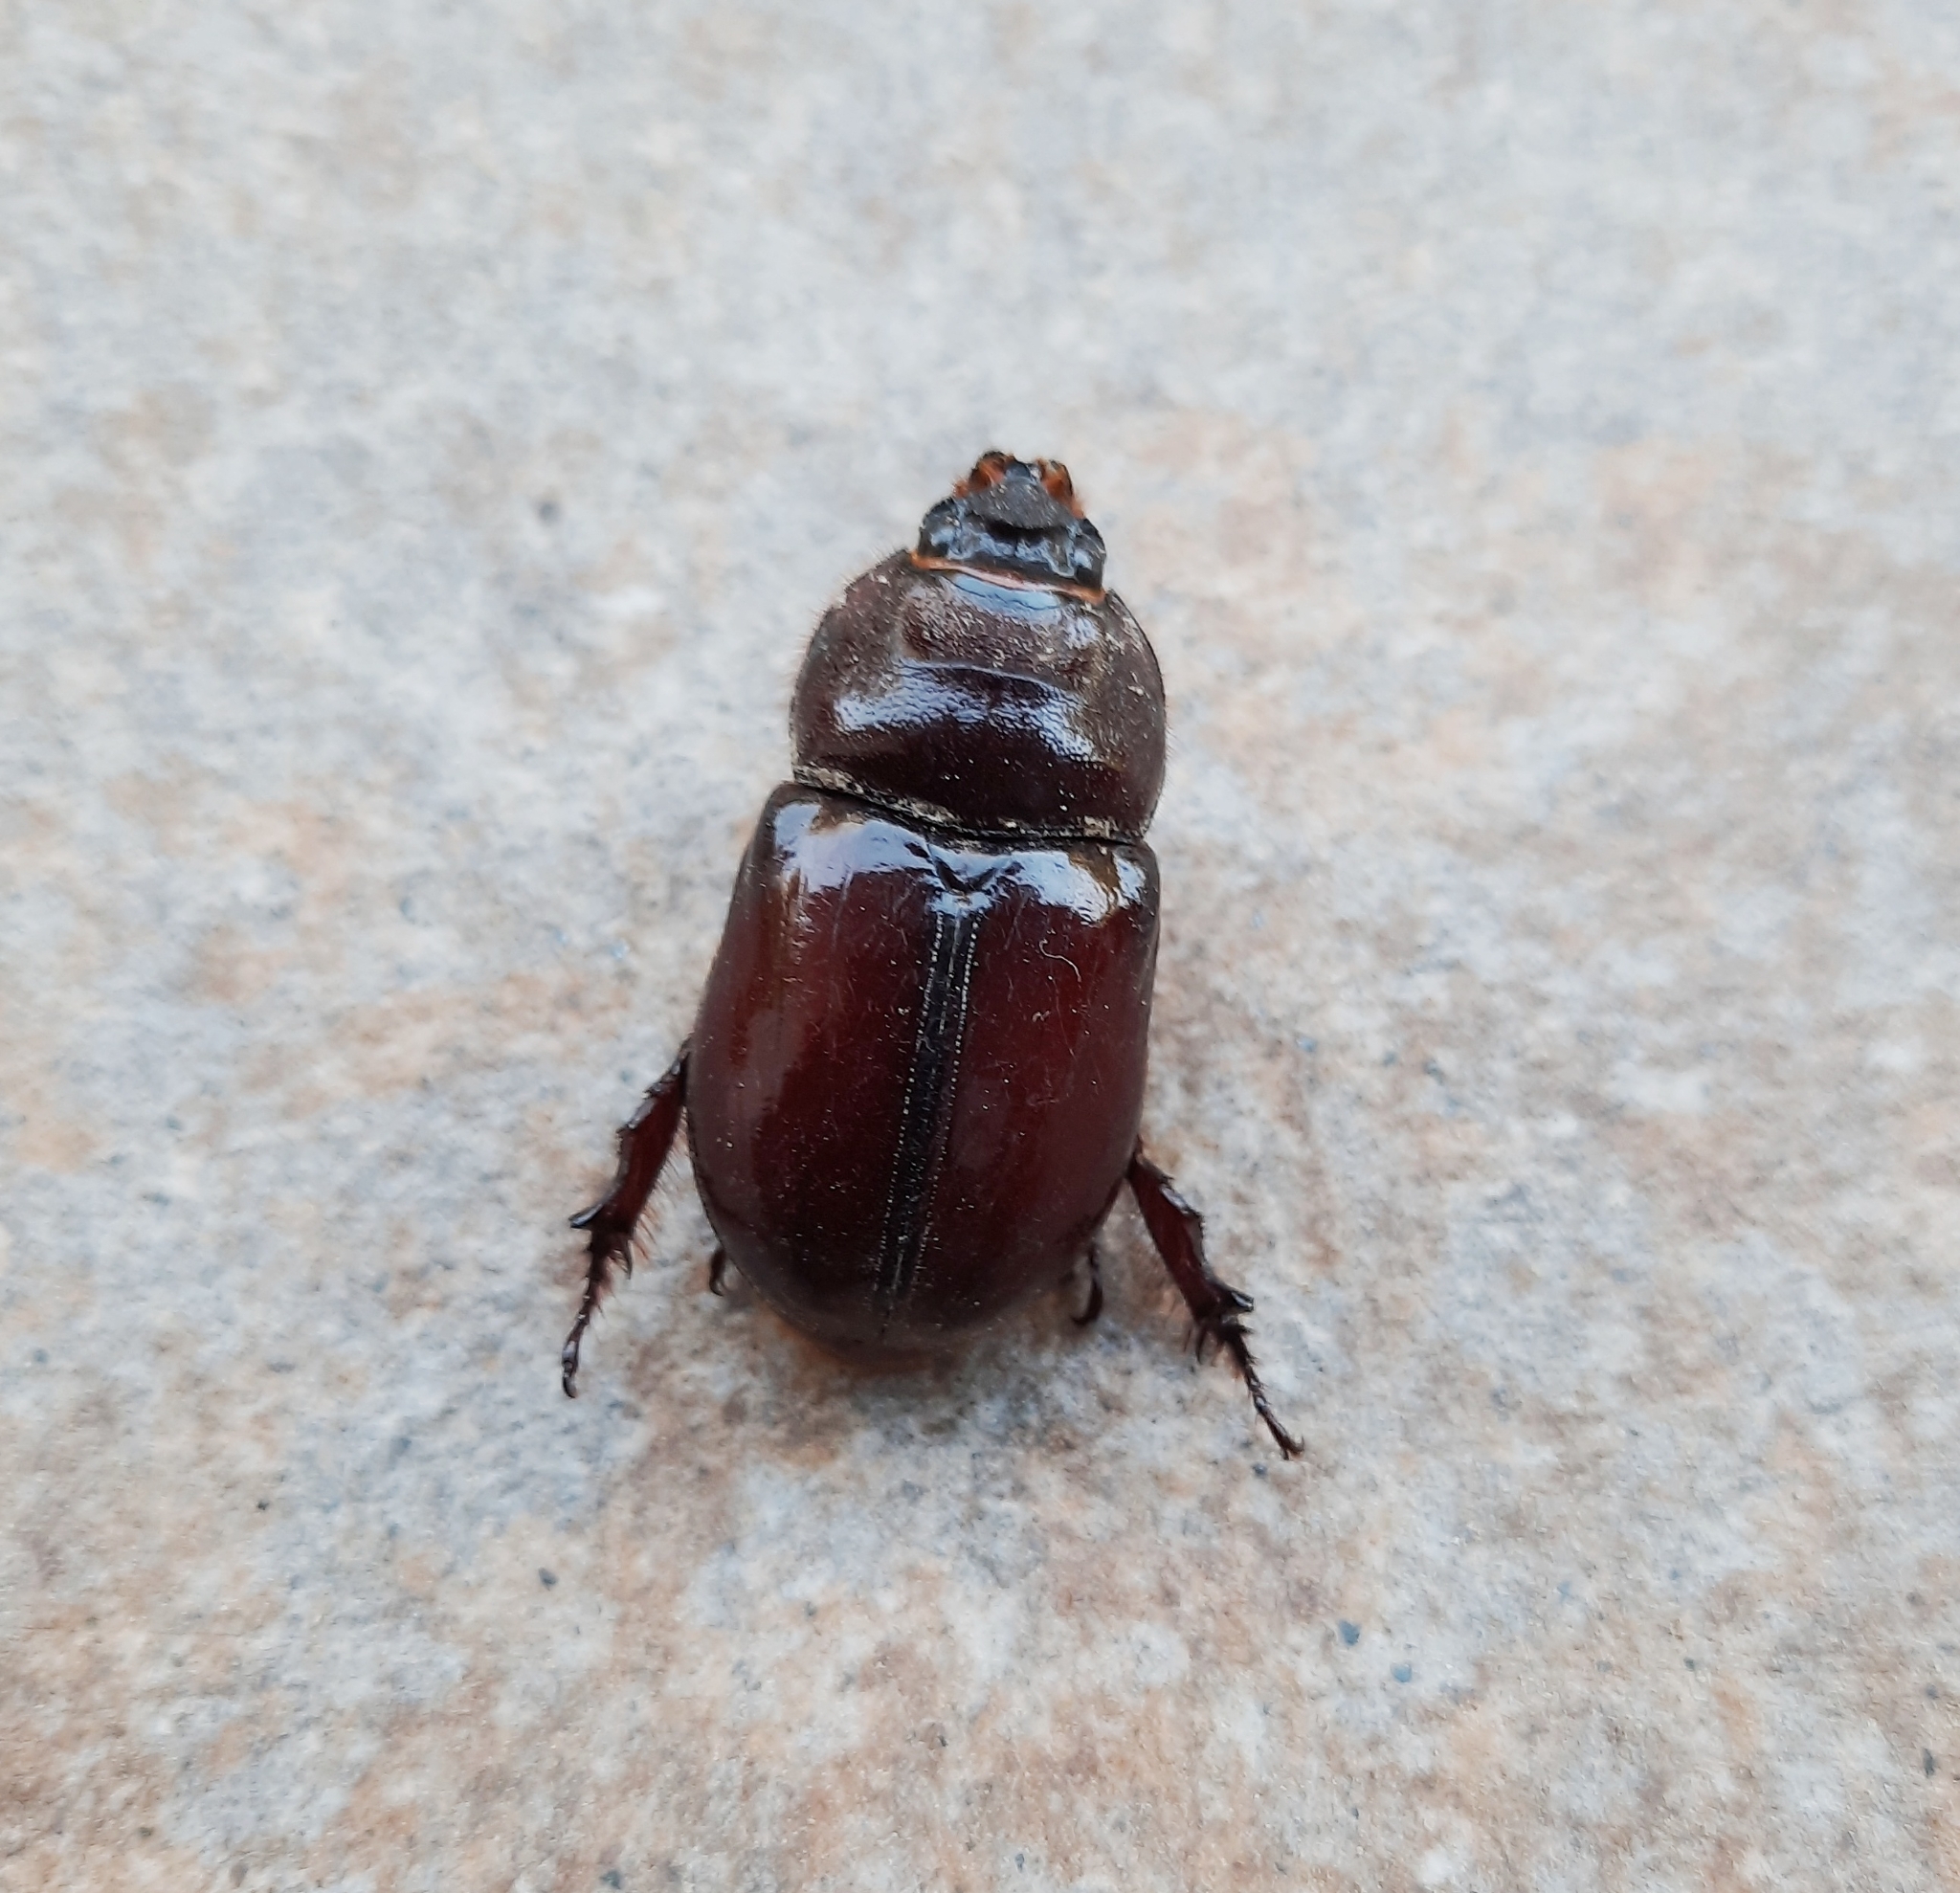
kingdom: Animalia
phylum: Arthropoda
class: Insecta
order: Coleoptera
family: Scarabaeidae
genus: Oryctes
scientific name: Oryctes nasicornis
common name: European rhinoceros beetle
